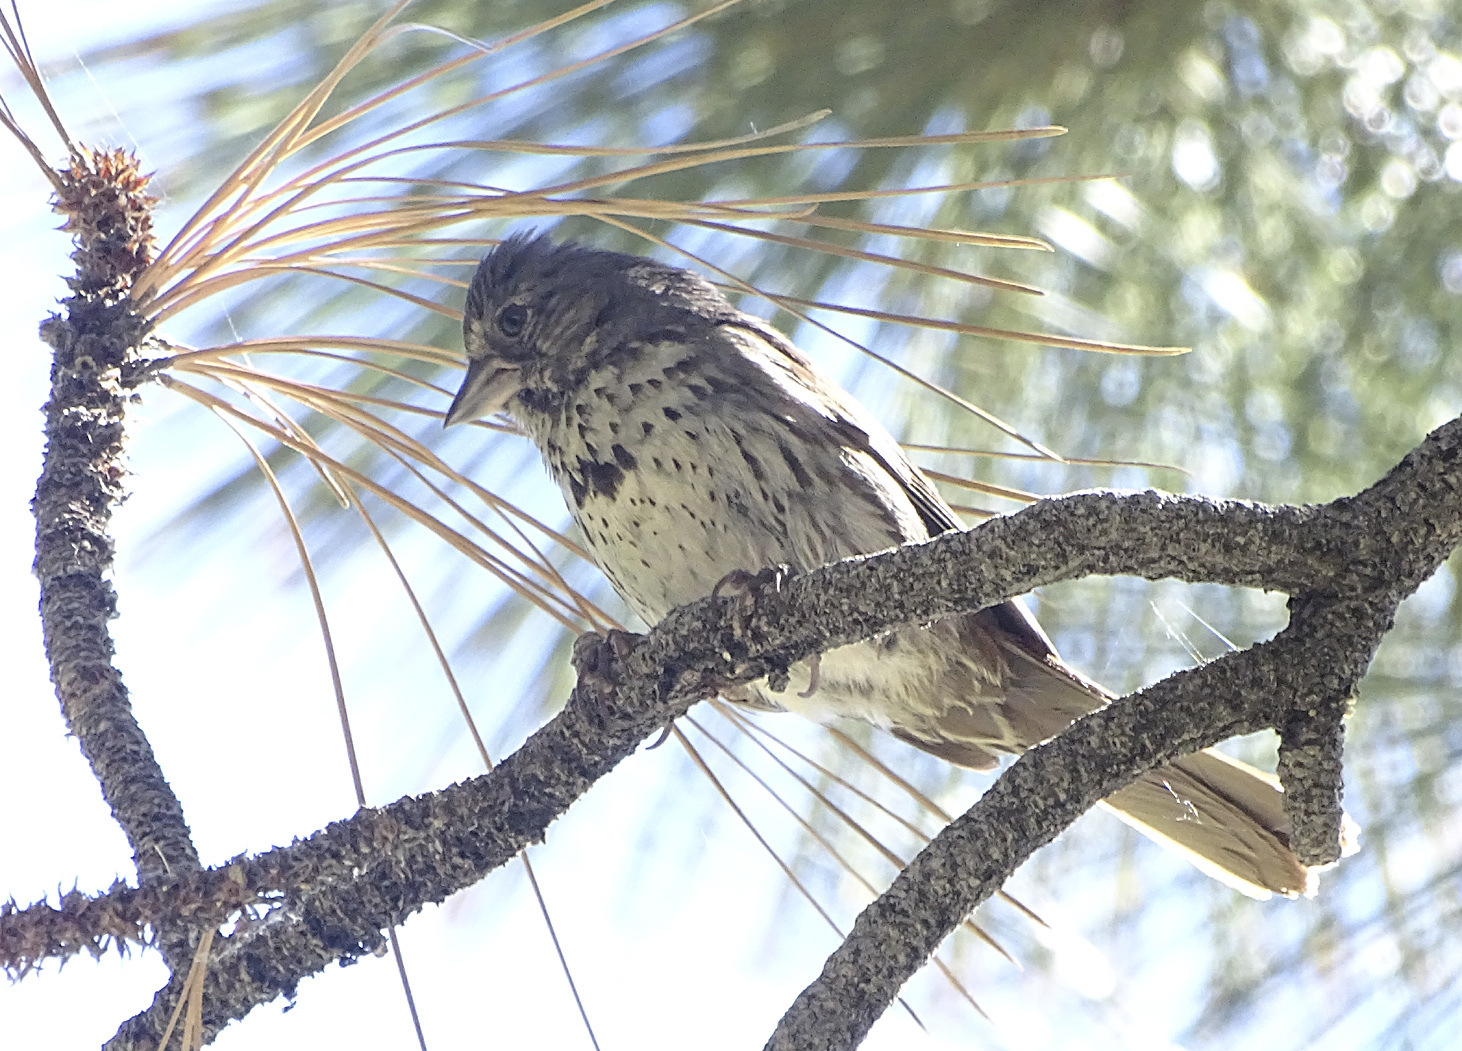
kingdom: Animalia
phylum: Chordata
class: Aves
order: Passeriformes
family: Passerellidae
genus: Passerella
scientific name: Passerella iliaca
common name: Fox sparrow
